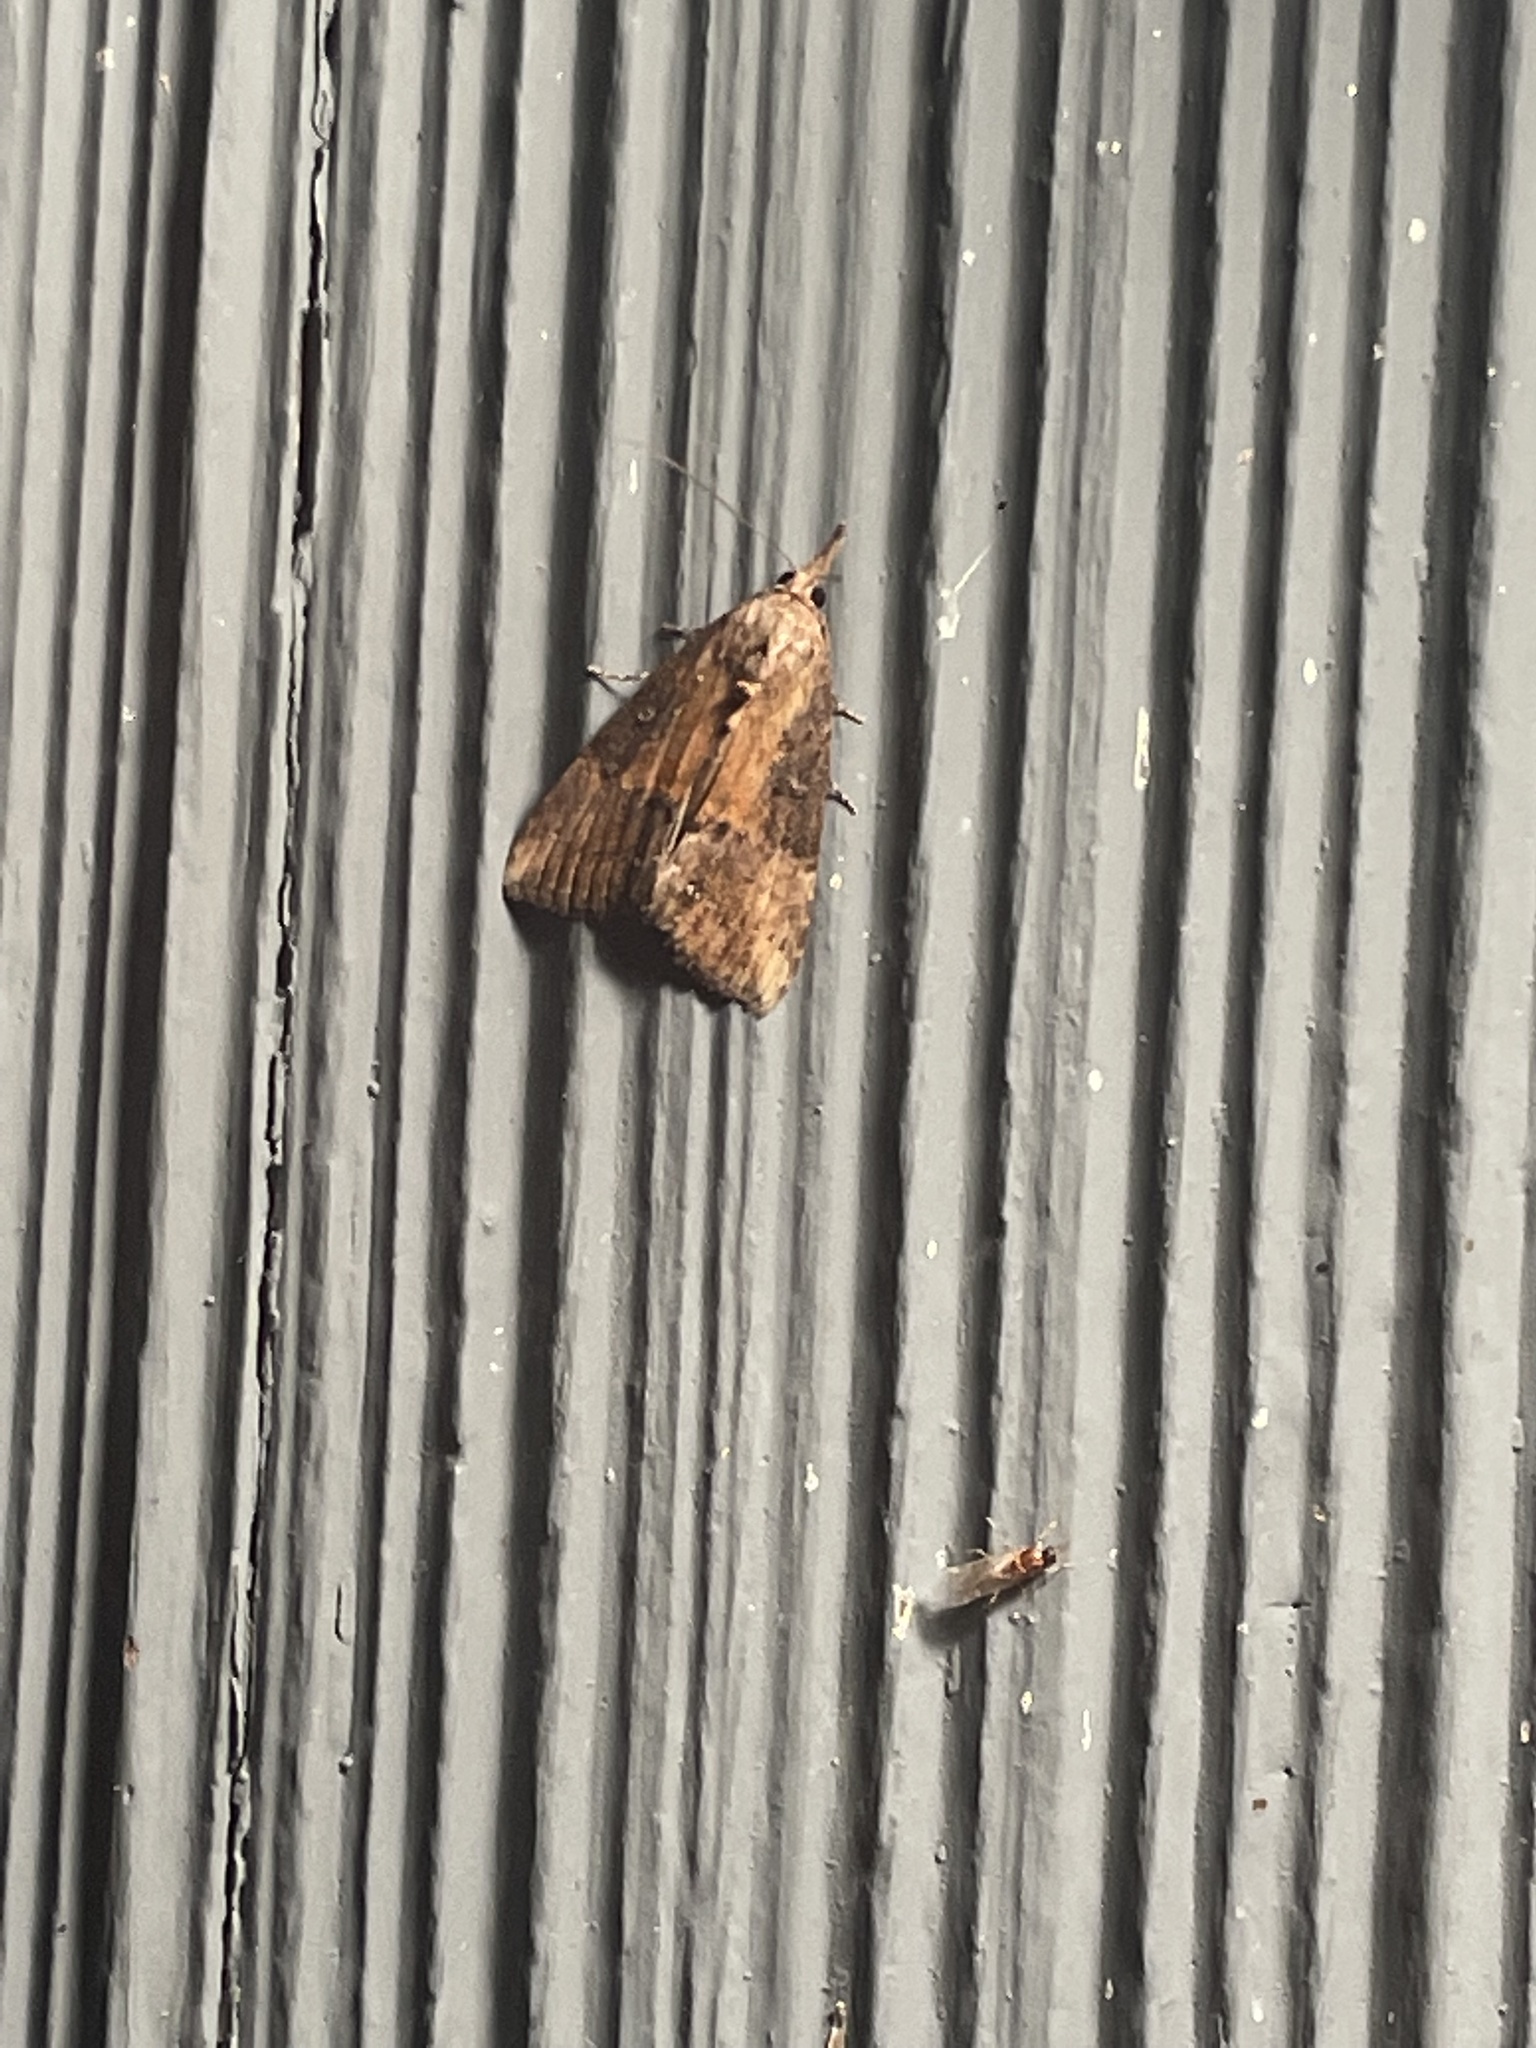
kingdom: Animalia
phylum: Arthropoda
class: Insecta
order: Lepidoptera
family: Erebidae
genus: Hypena
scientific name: Hypena scabra
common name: Green cloverworm
